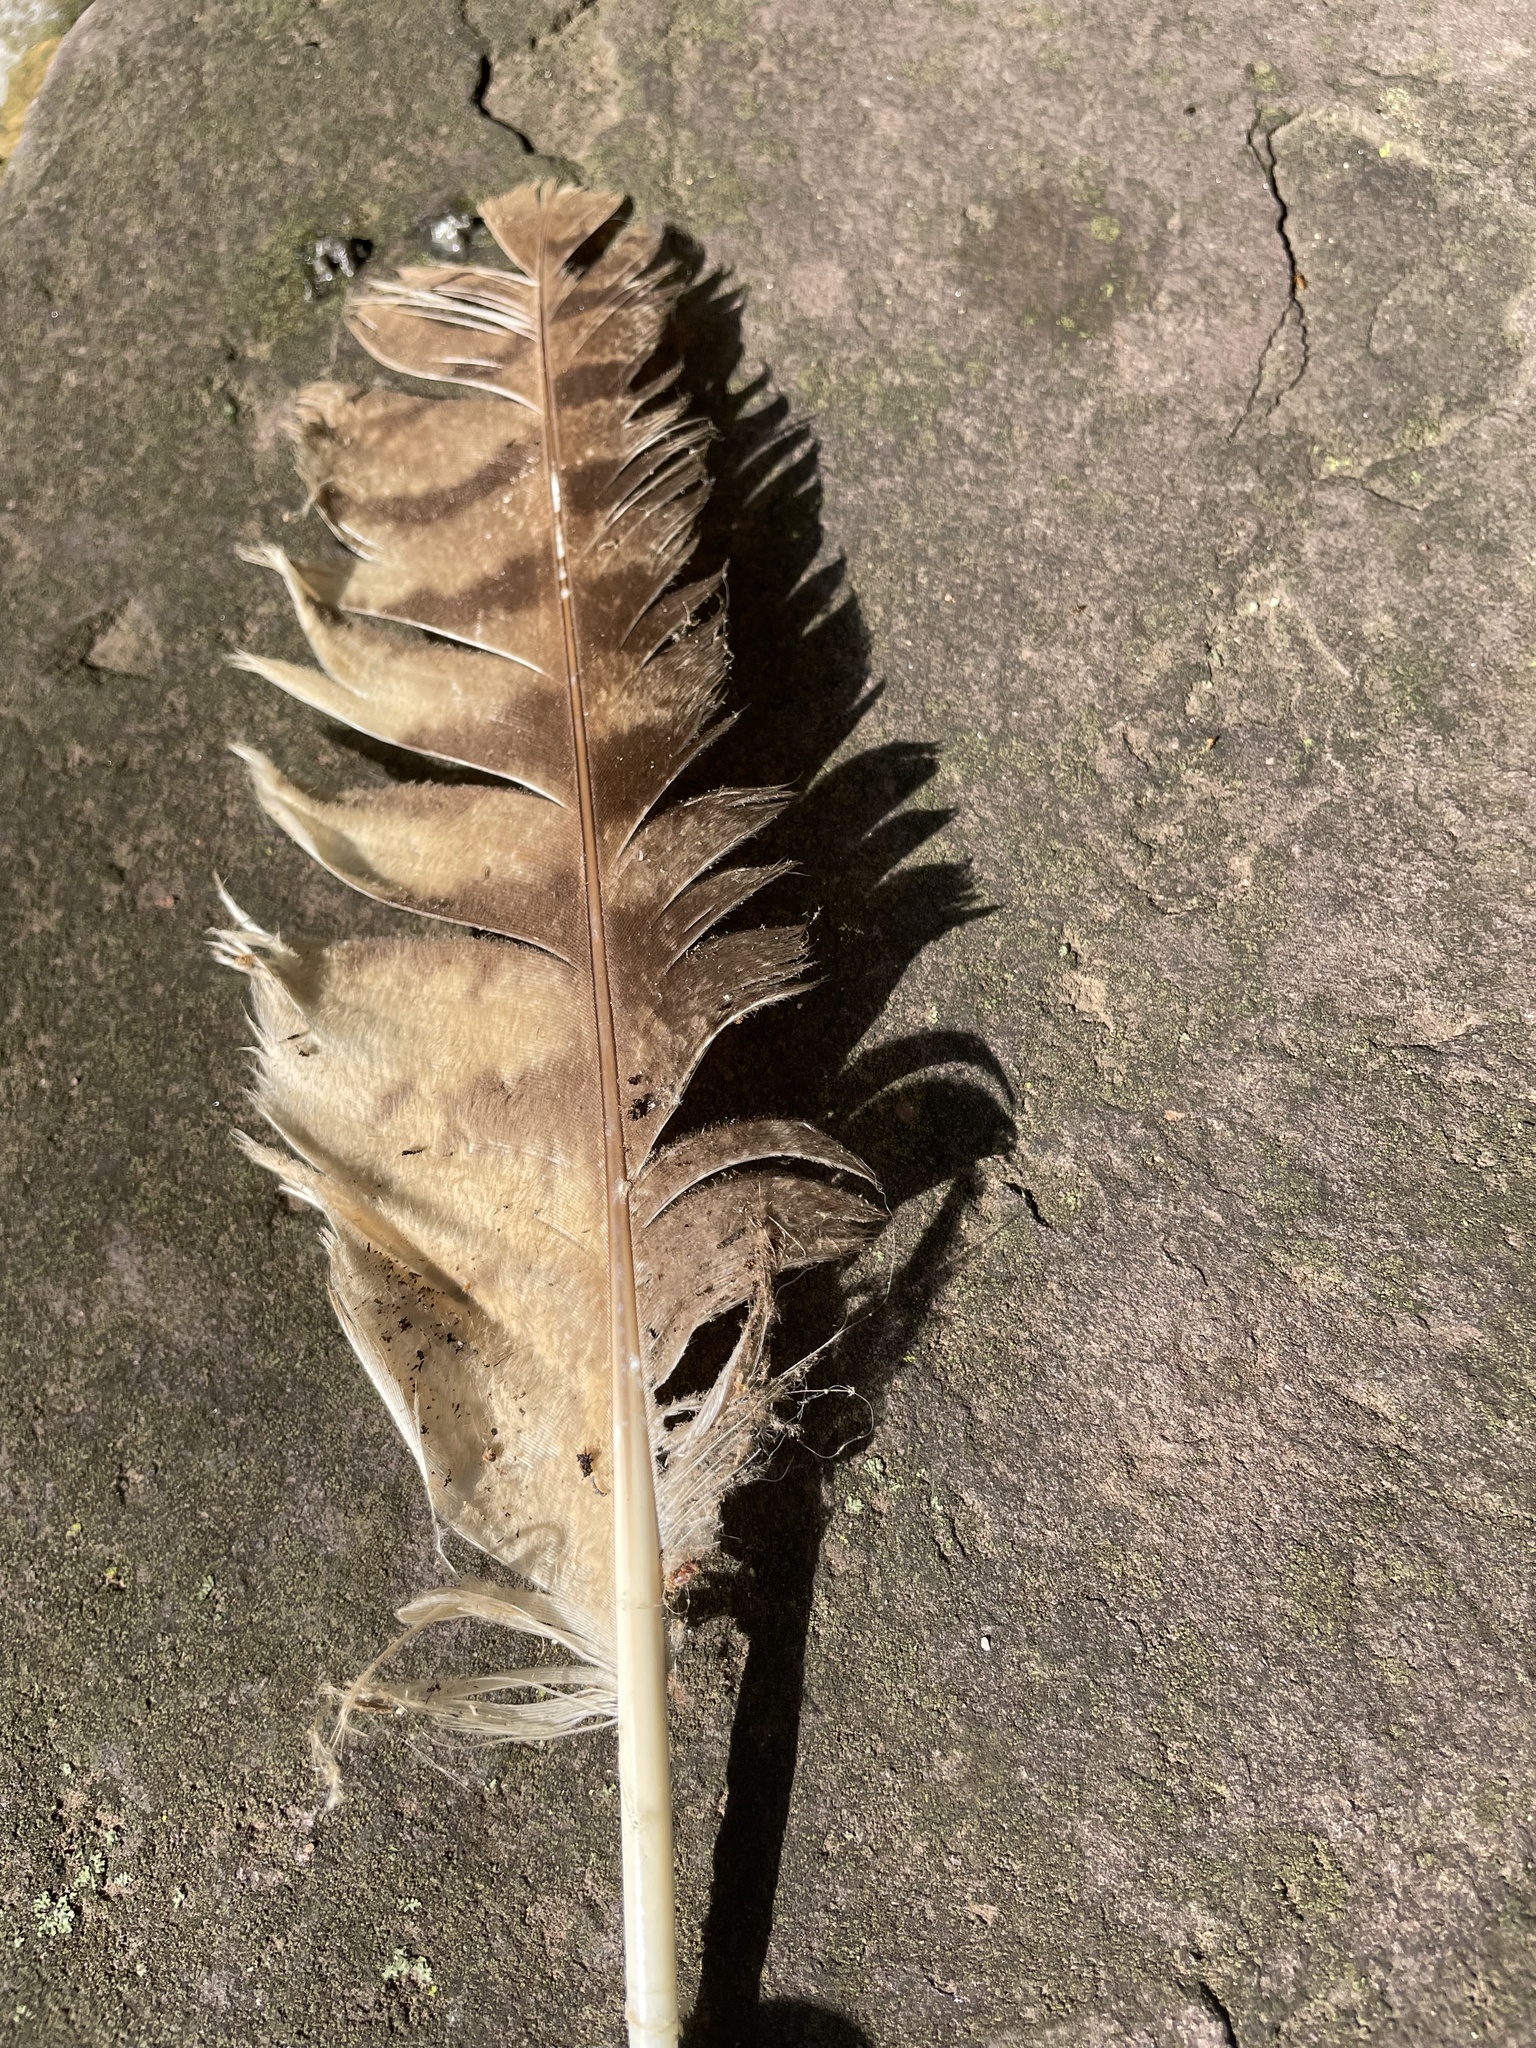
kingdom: Animalia
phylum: Chordata
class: Aves
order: Strigiformes
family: Strigidae
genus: Bubo
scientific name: Bubo virginianus
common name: Great horned owl
